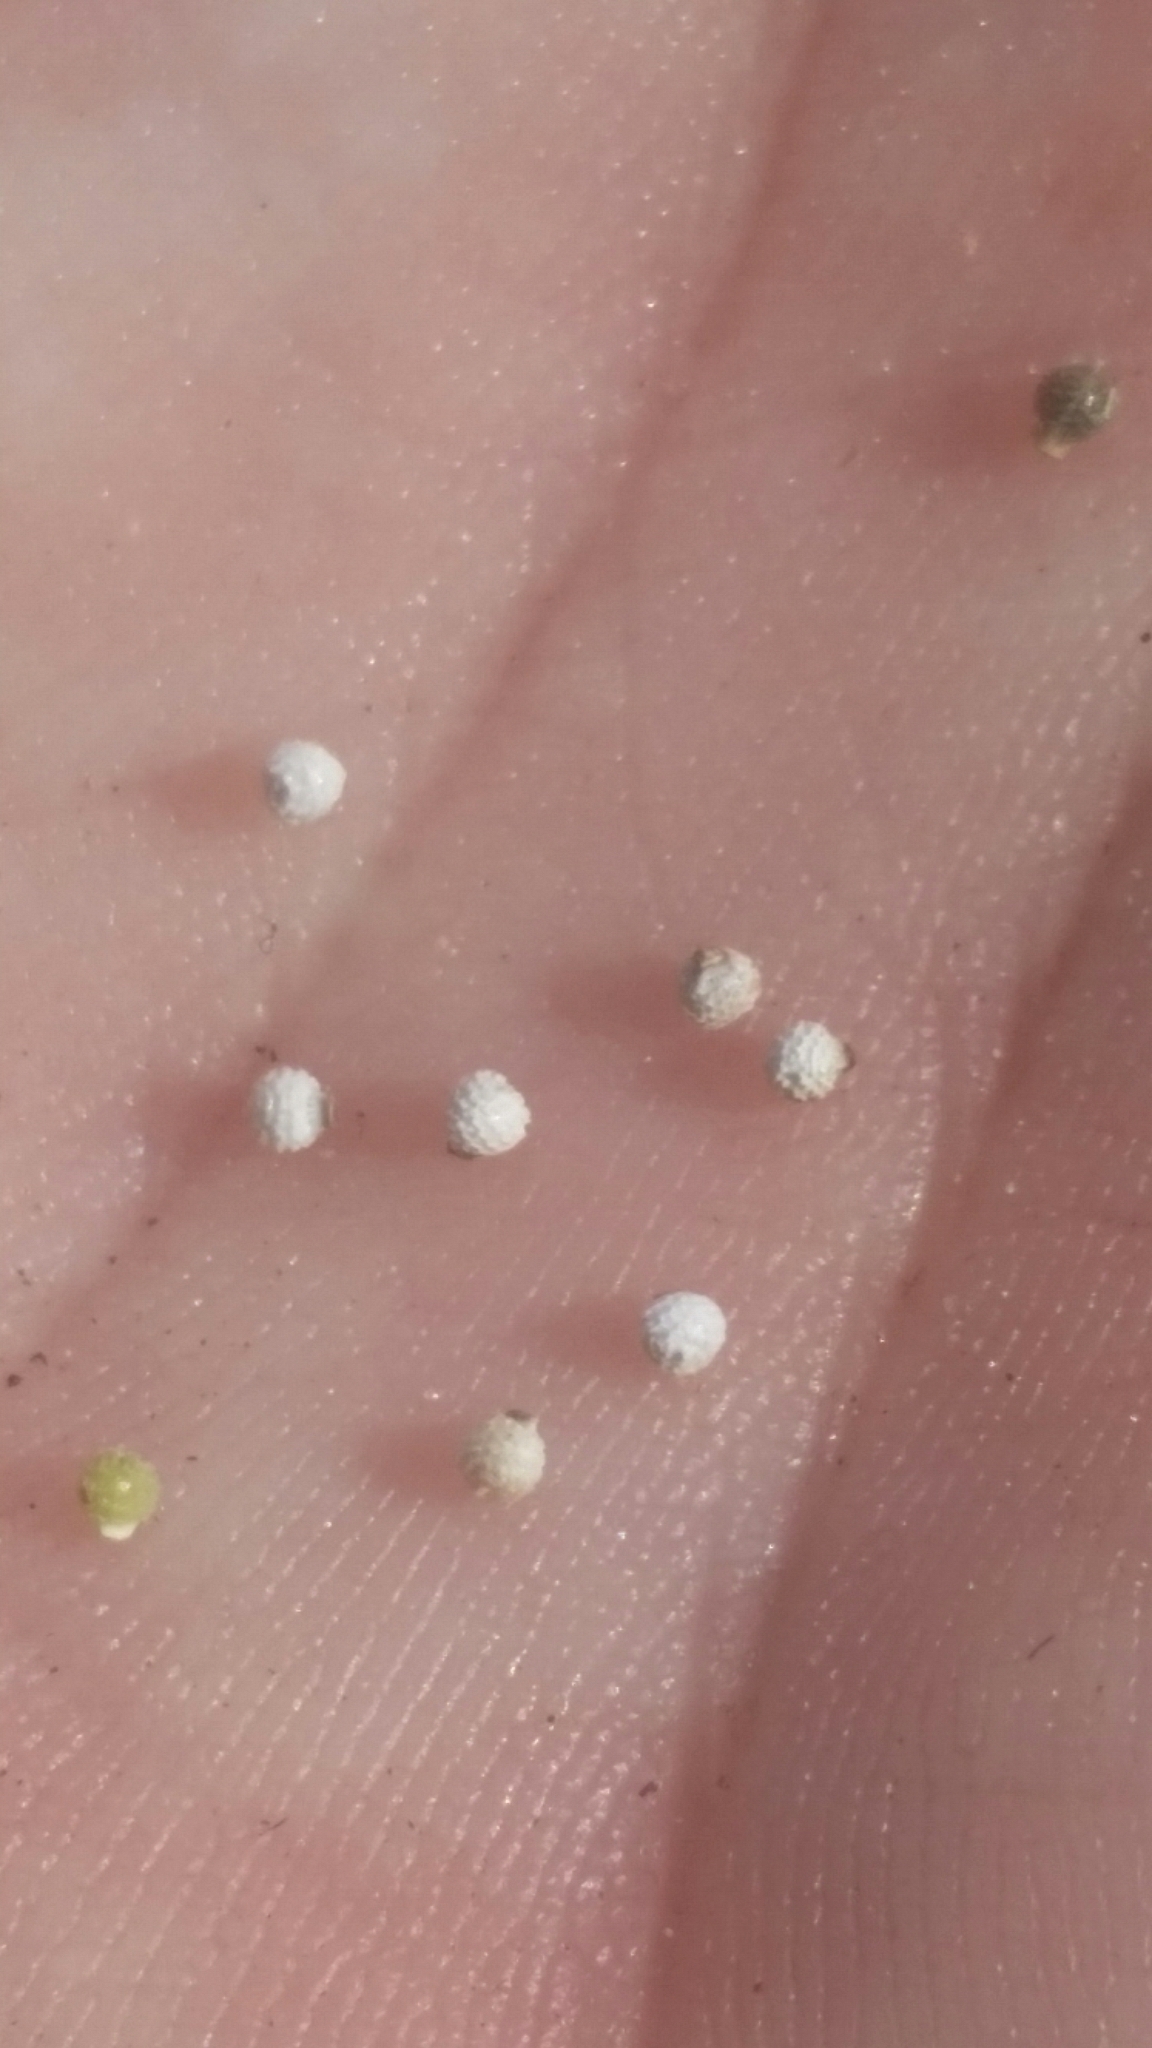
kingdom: Plantae
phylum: Tracheophyta
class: Liliopsida
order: Poales
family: Cyperaceae
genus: Scleria
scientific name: Scleria verticillata
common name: Low nutrush
